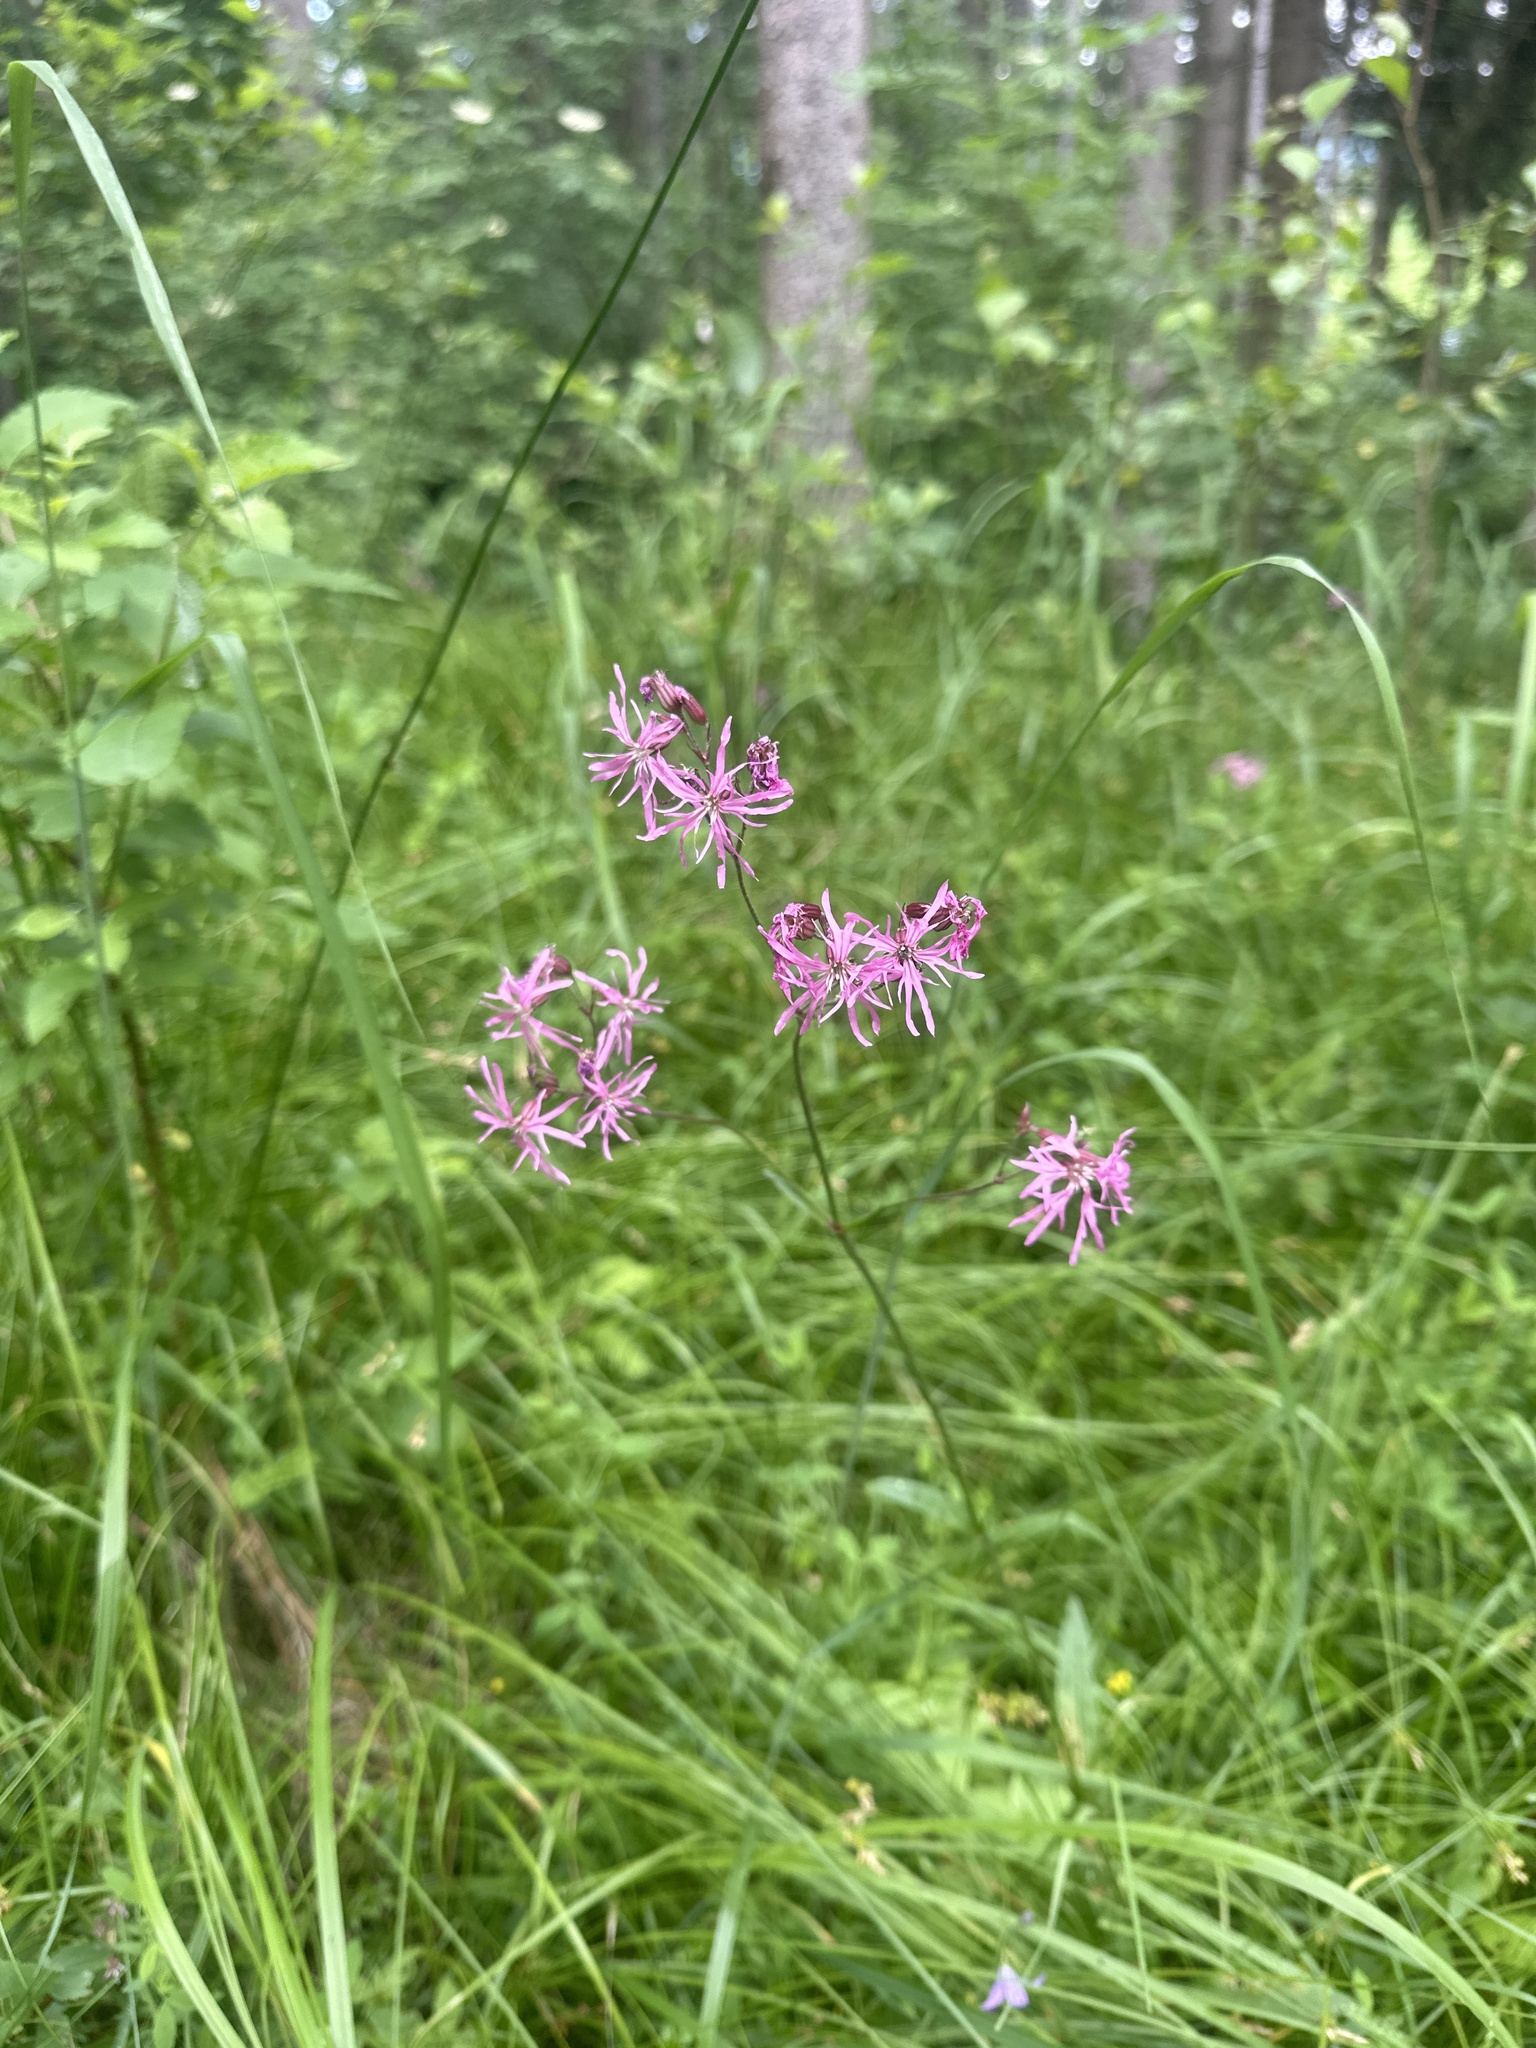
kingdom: Plantae
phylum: Tracheophyta
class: Magnoliopsida
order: Caryophyllales
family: Caryophyllaceae
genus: Silene
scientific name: Silene flos-cuculi
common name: Ragged-robin
